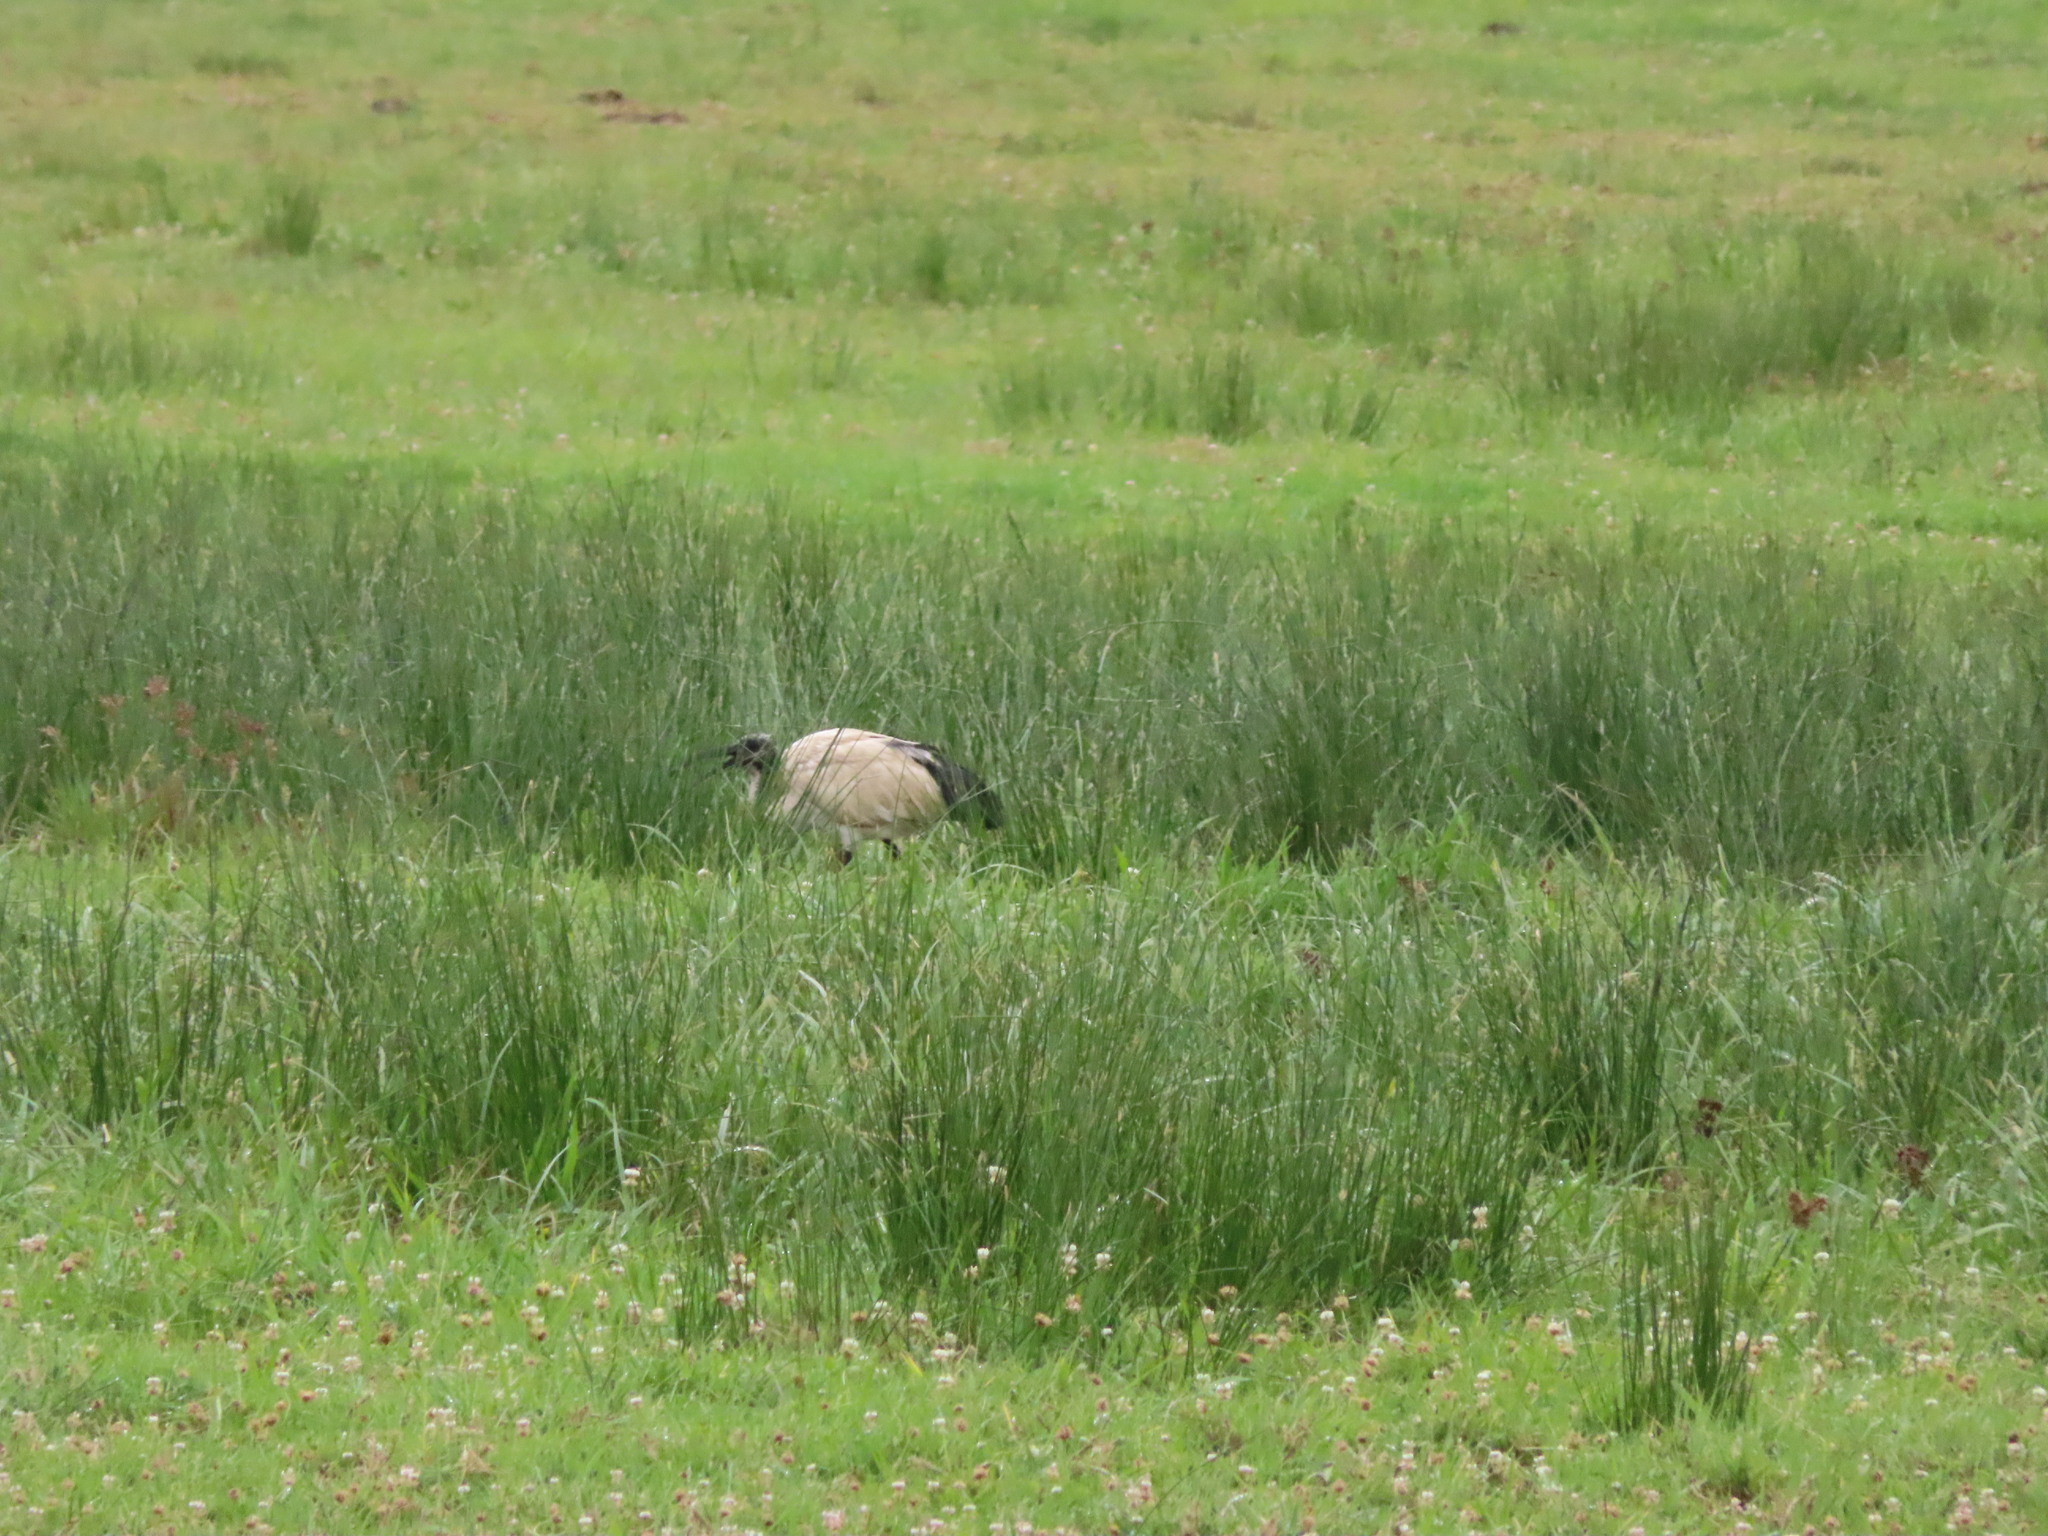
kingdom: Animalia
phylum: Chordata
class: Aves
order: Pelecaniformes
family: Threskiornithidae
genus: Threskiornis
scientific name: Threskiornis aethiopicus
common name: Sacred ibis
